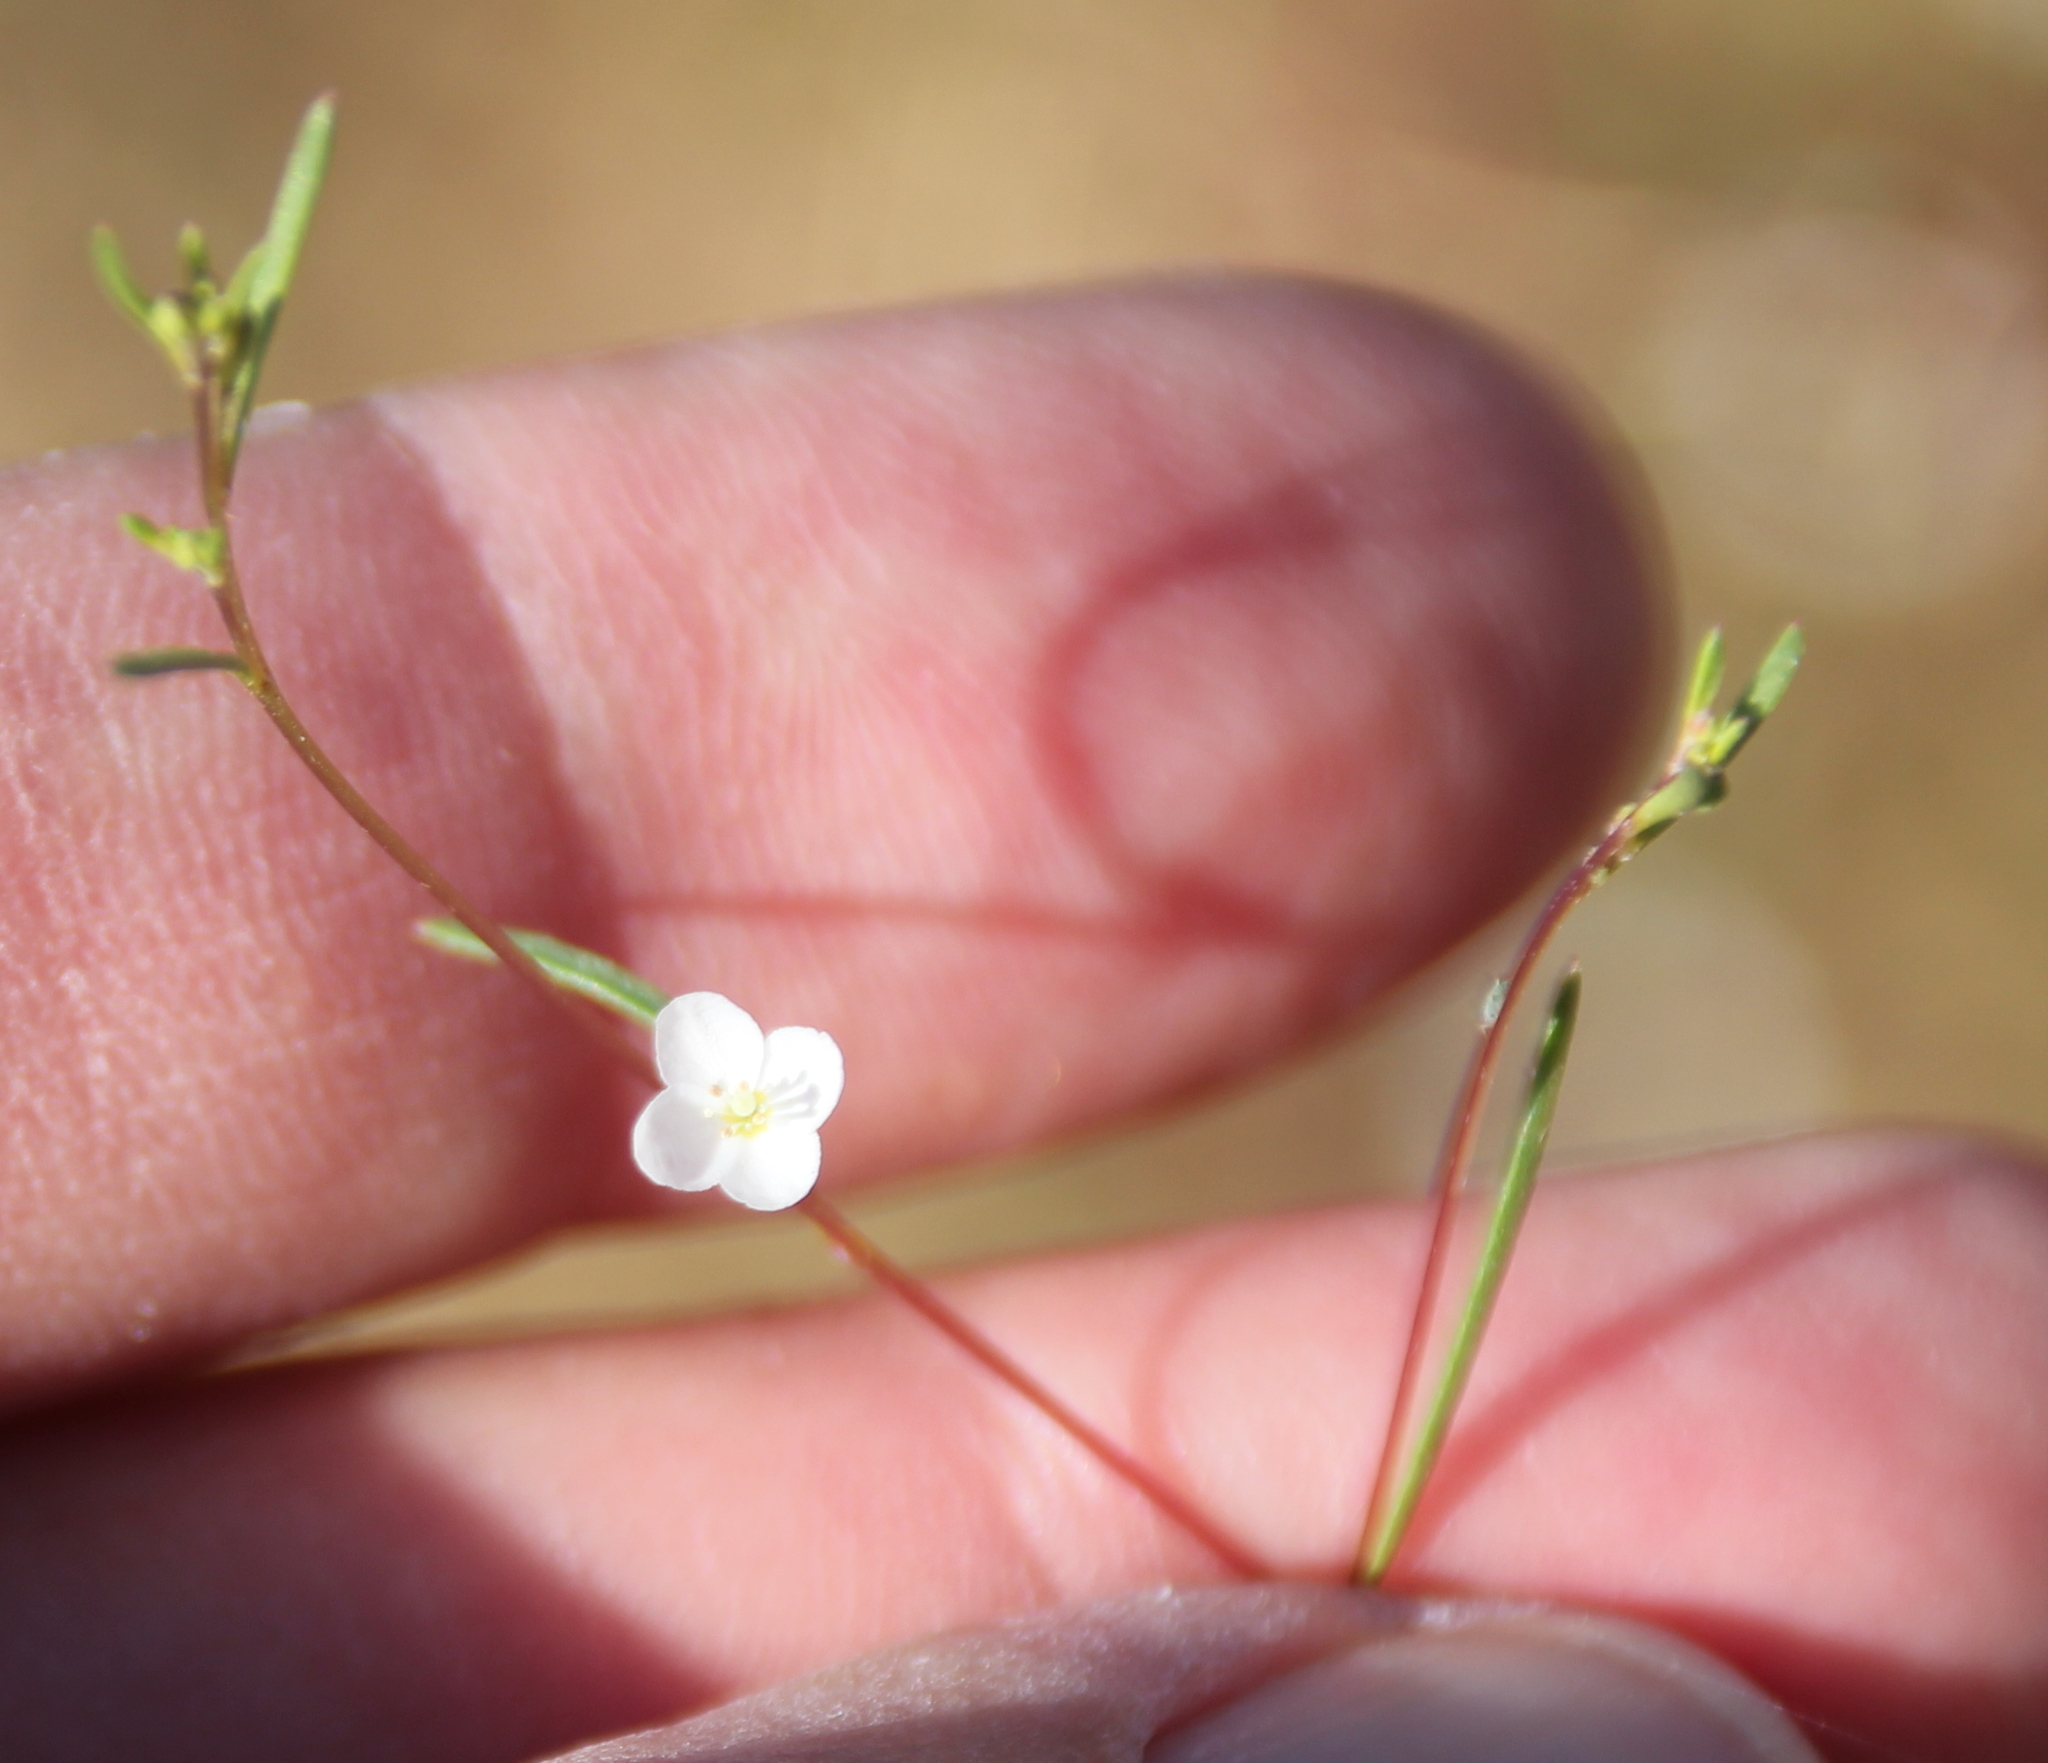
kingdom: Plantae
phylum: Tracheophyta
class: Magnoliopsida
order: Myrtales
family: Onagraceae
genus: Gayophytum
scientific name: Gayophytum diffusum
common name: Big-flowered groundsmoke
